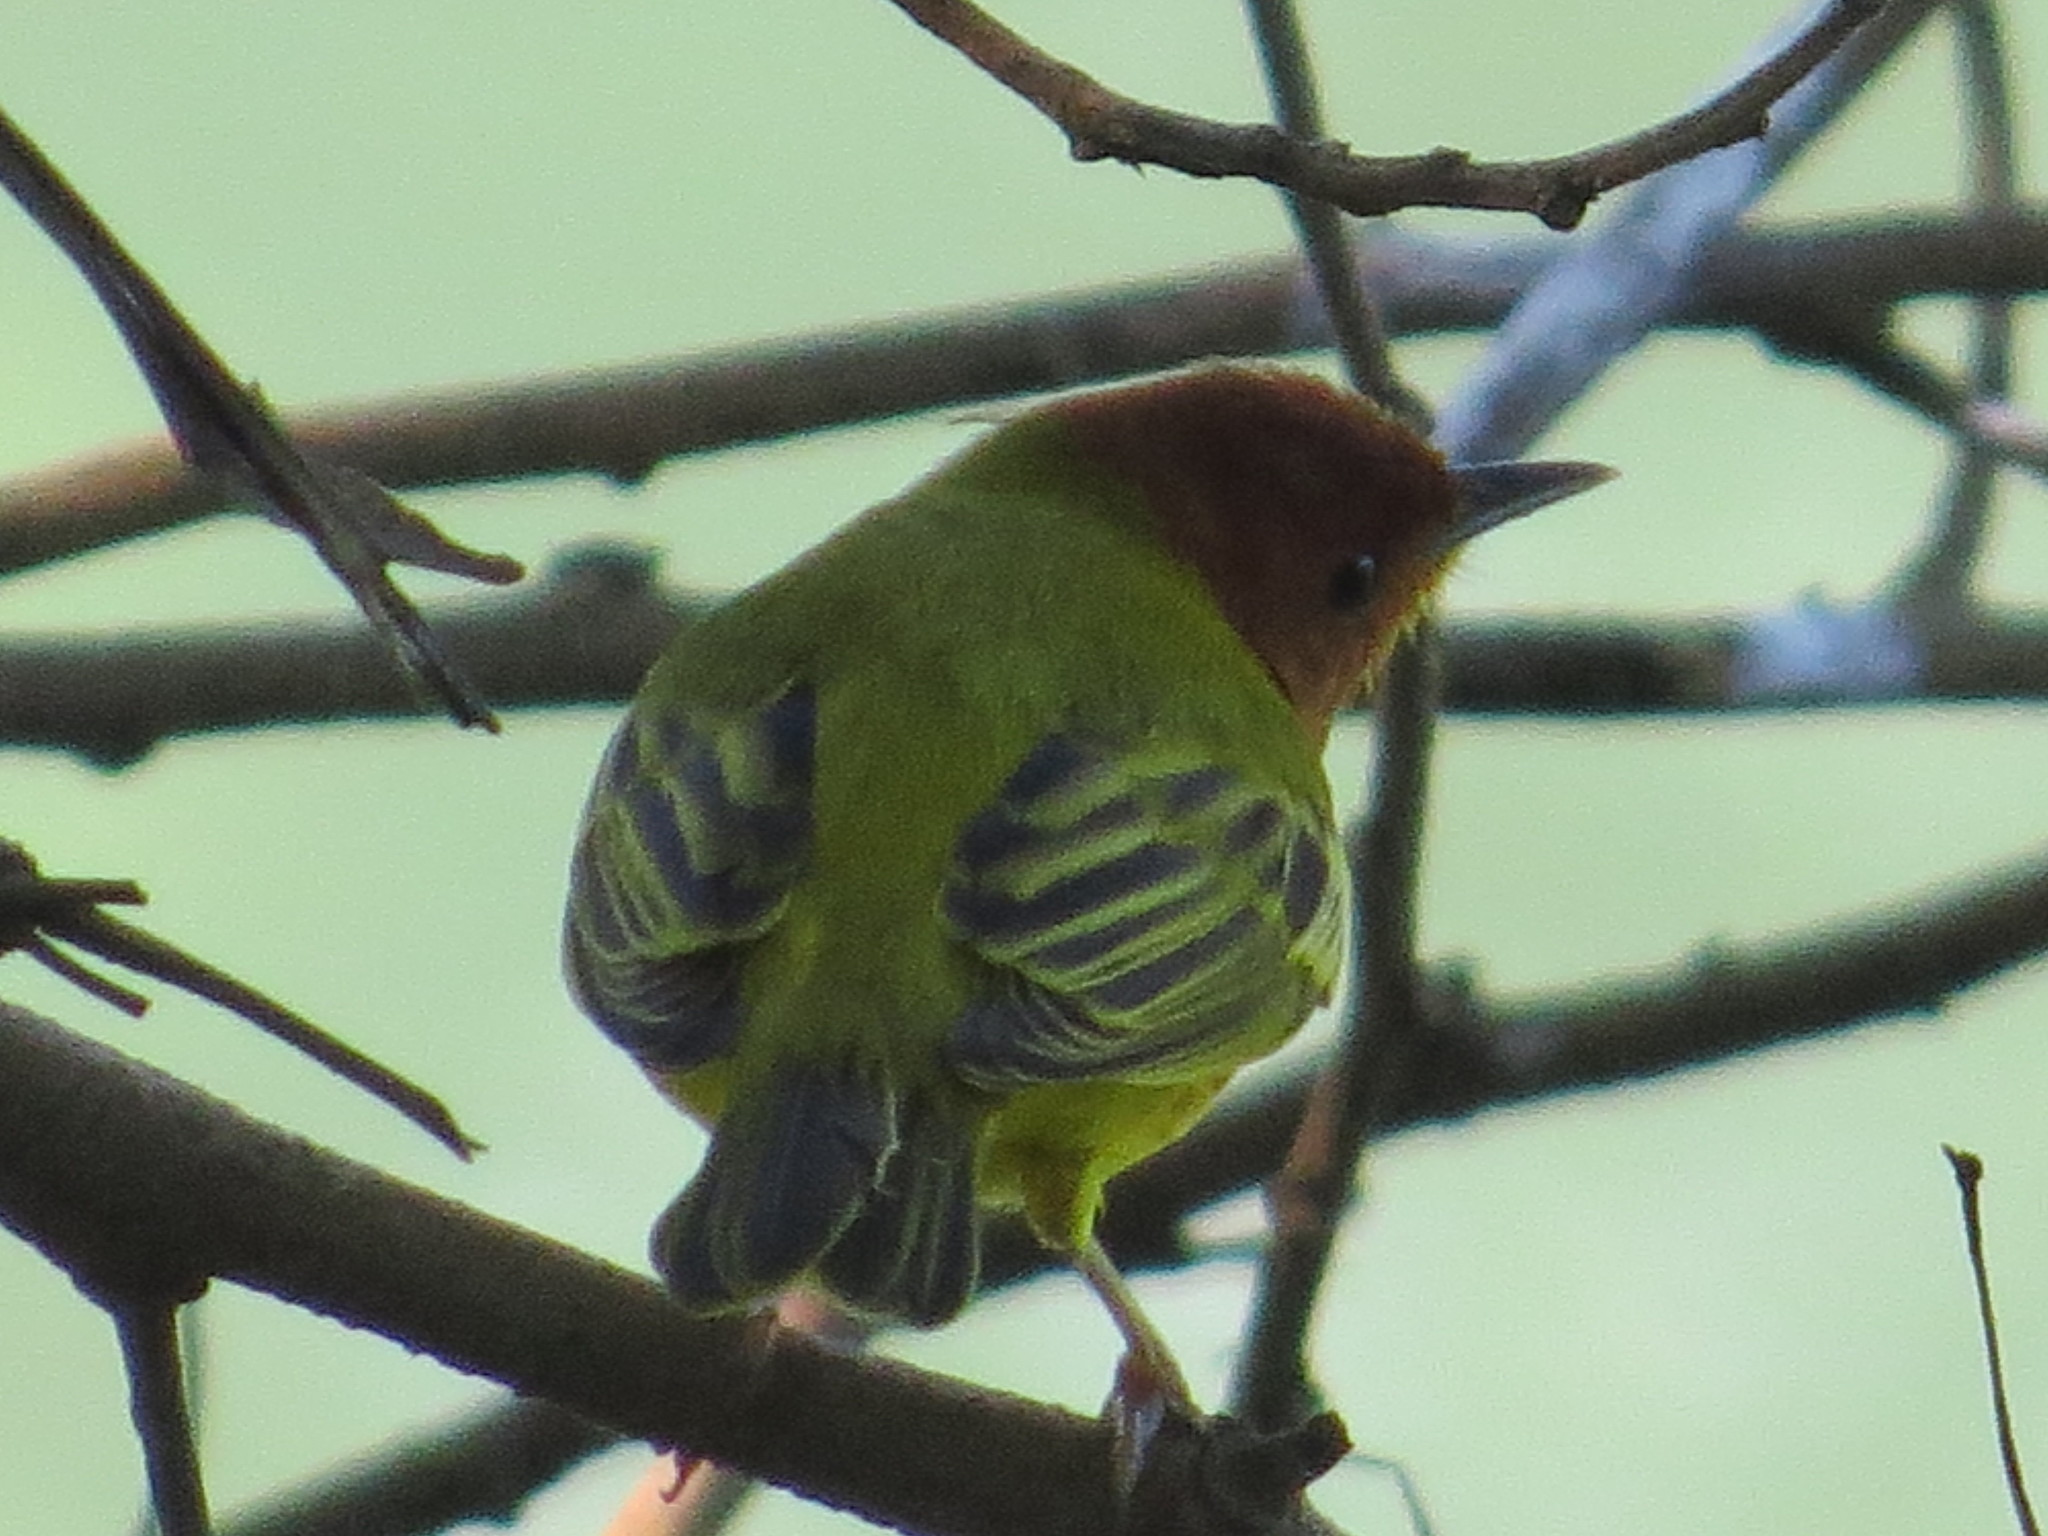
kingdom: Animalia
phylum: Chordata
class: Aves
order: Passeriformes
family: Parulidae
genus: Setophaga
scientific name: Setophaga petechia
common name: Yellow warbler
